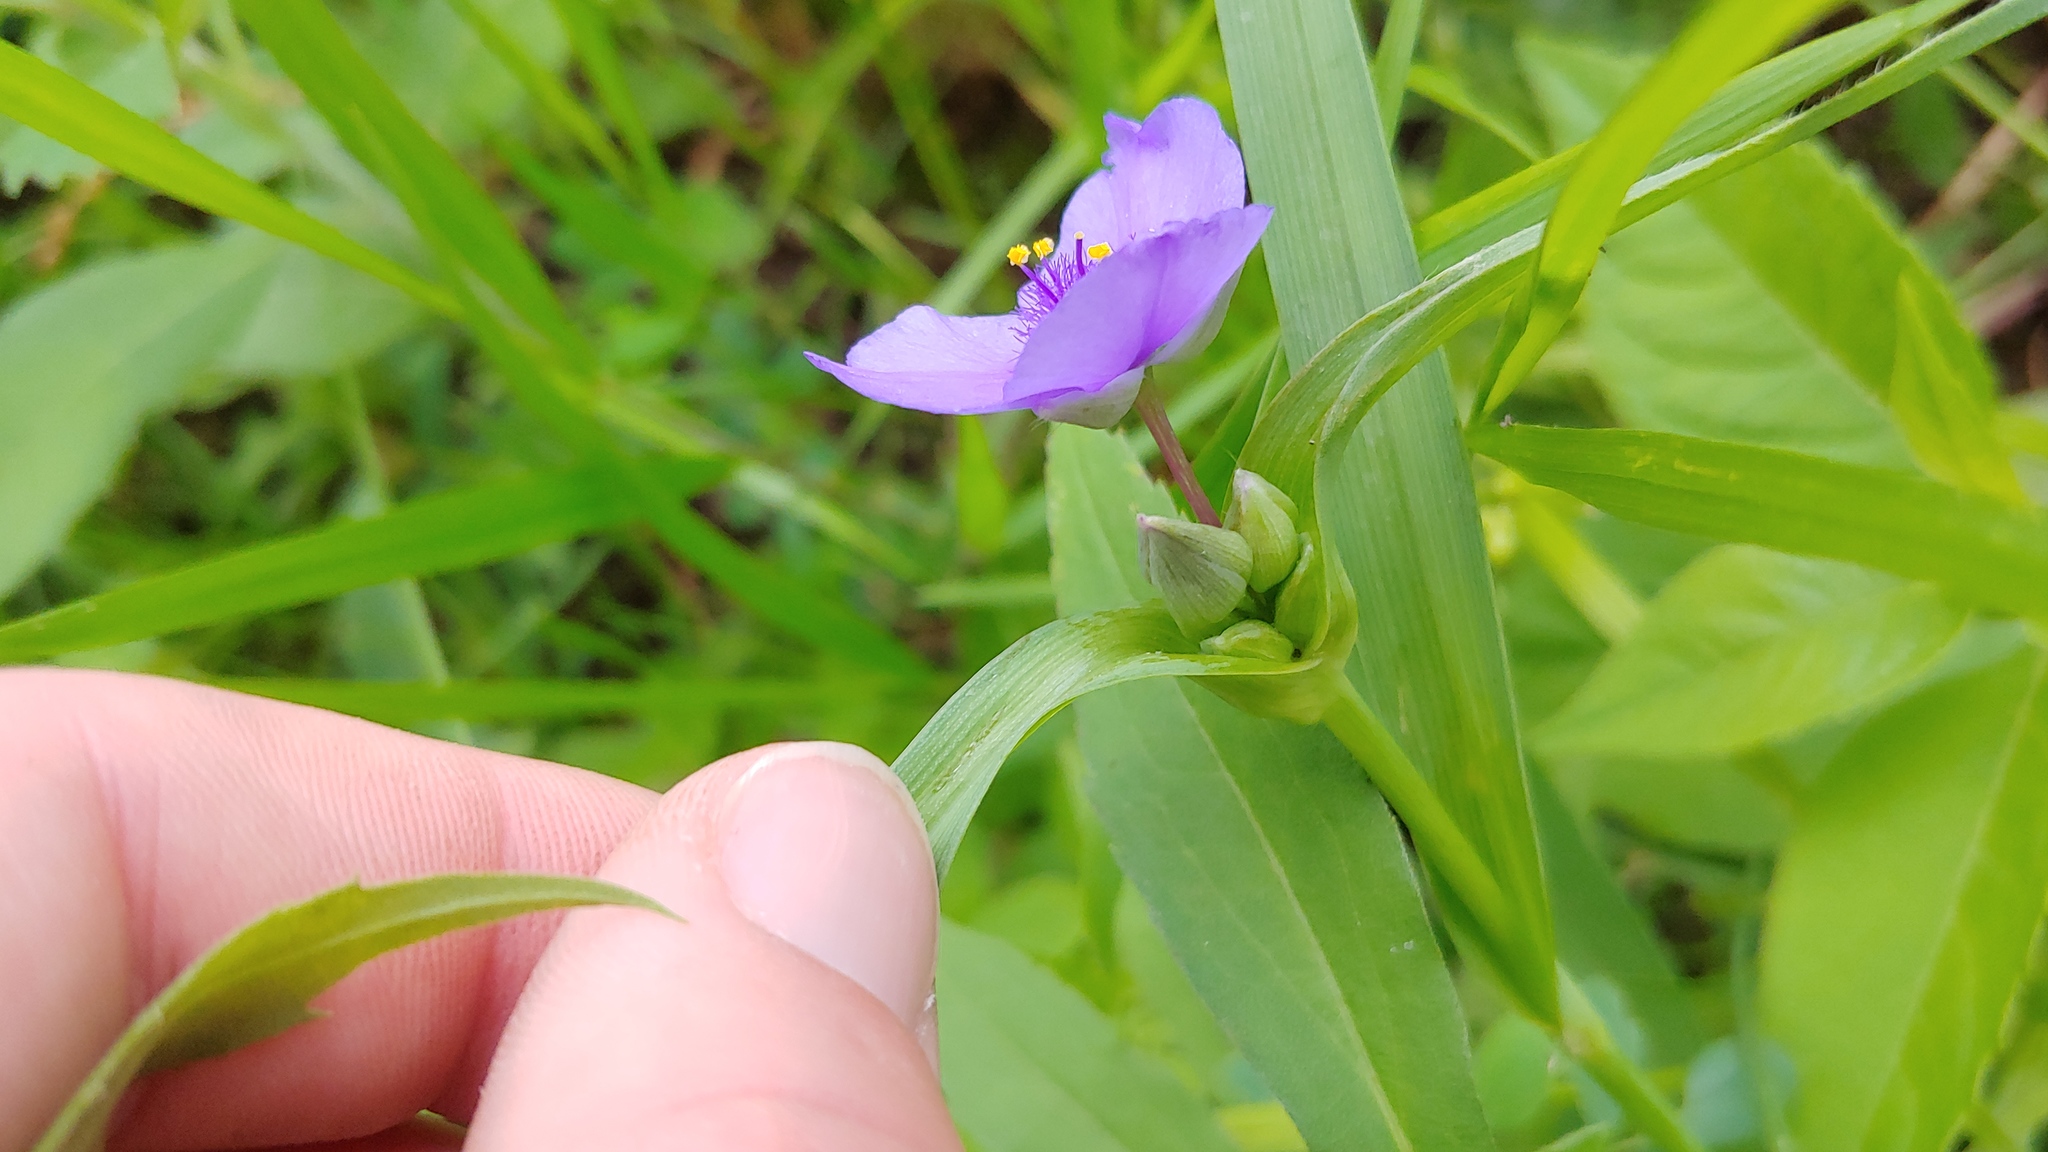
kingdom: Plantae
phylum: Tracheophyta
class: Liliopsida
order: Commelinales
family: Commelinaceae
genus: Tradescantia
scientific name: Tradescantia ohiensis
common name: Ohio spiderwort
